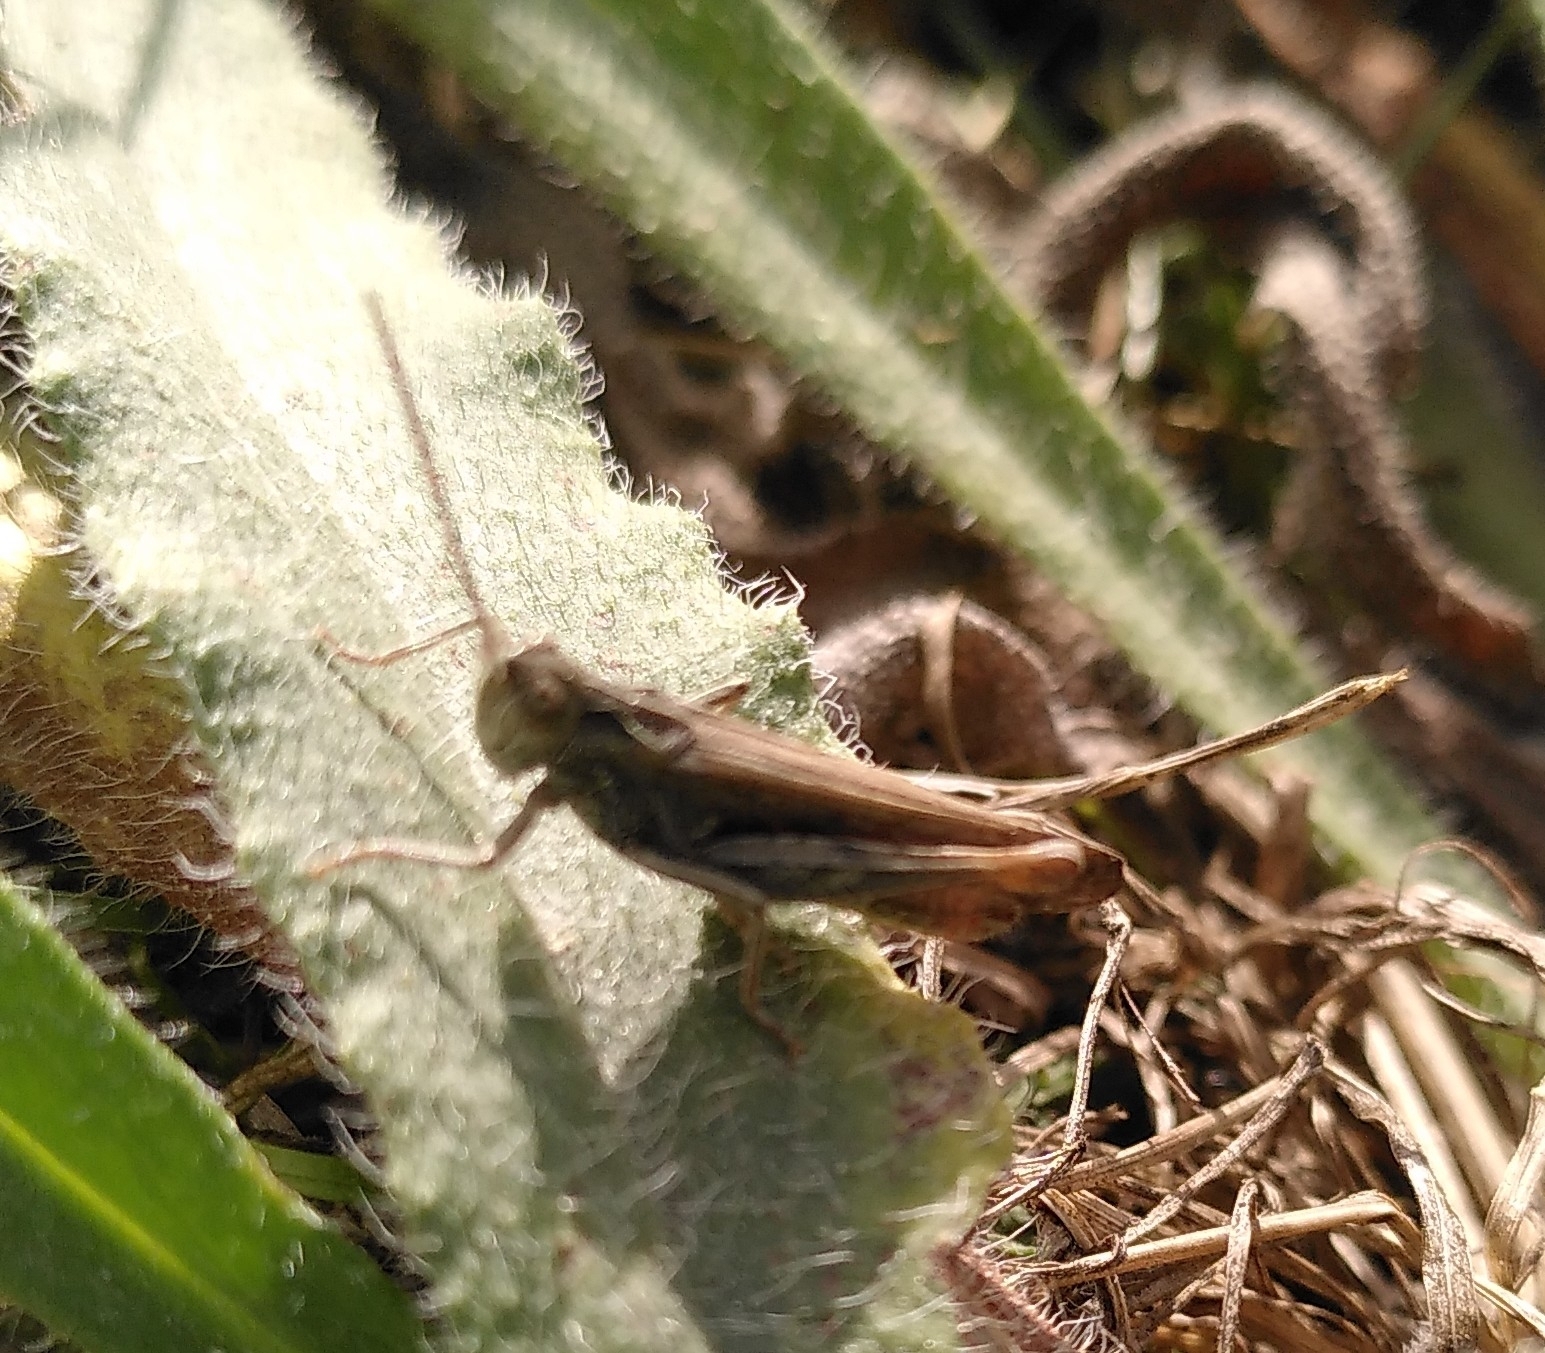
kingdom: Animalia
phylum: Arthropoda
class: Insecta
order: Orthoptera
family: Acrididae
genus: Chorthippus
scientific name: Chorthippus biguttulus
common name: Bow-winged grasshopper
